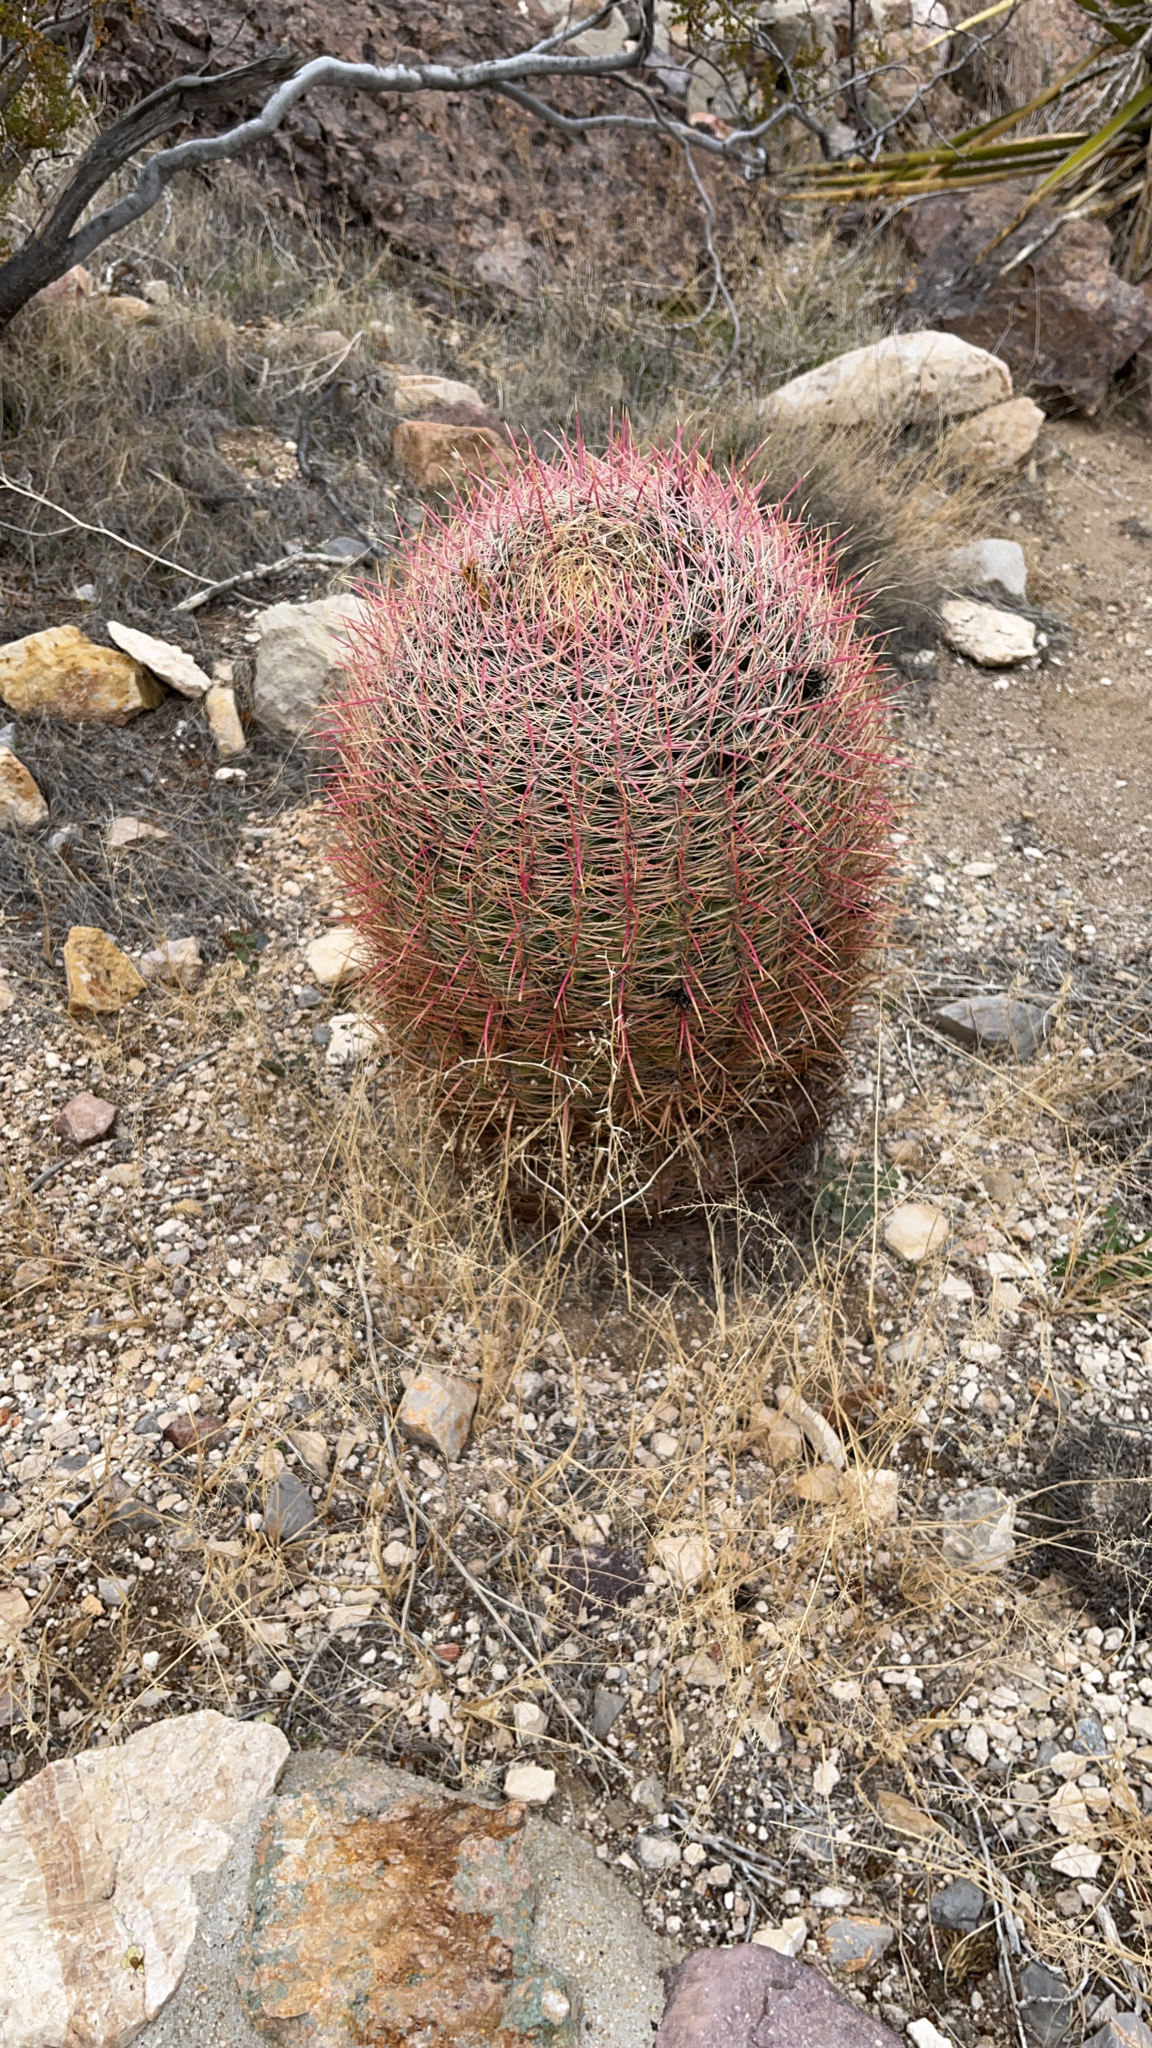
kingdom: Plantae
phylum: Tracheophyta
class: Magnoliopsida
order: Caryophyllales
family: Cactaceae
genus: Ferocactus
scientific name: Ferocactus cylindraceus
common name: California barrel cactus
